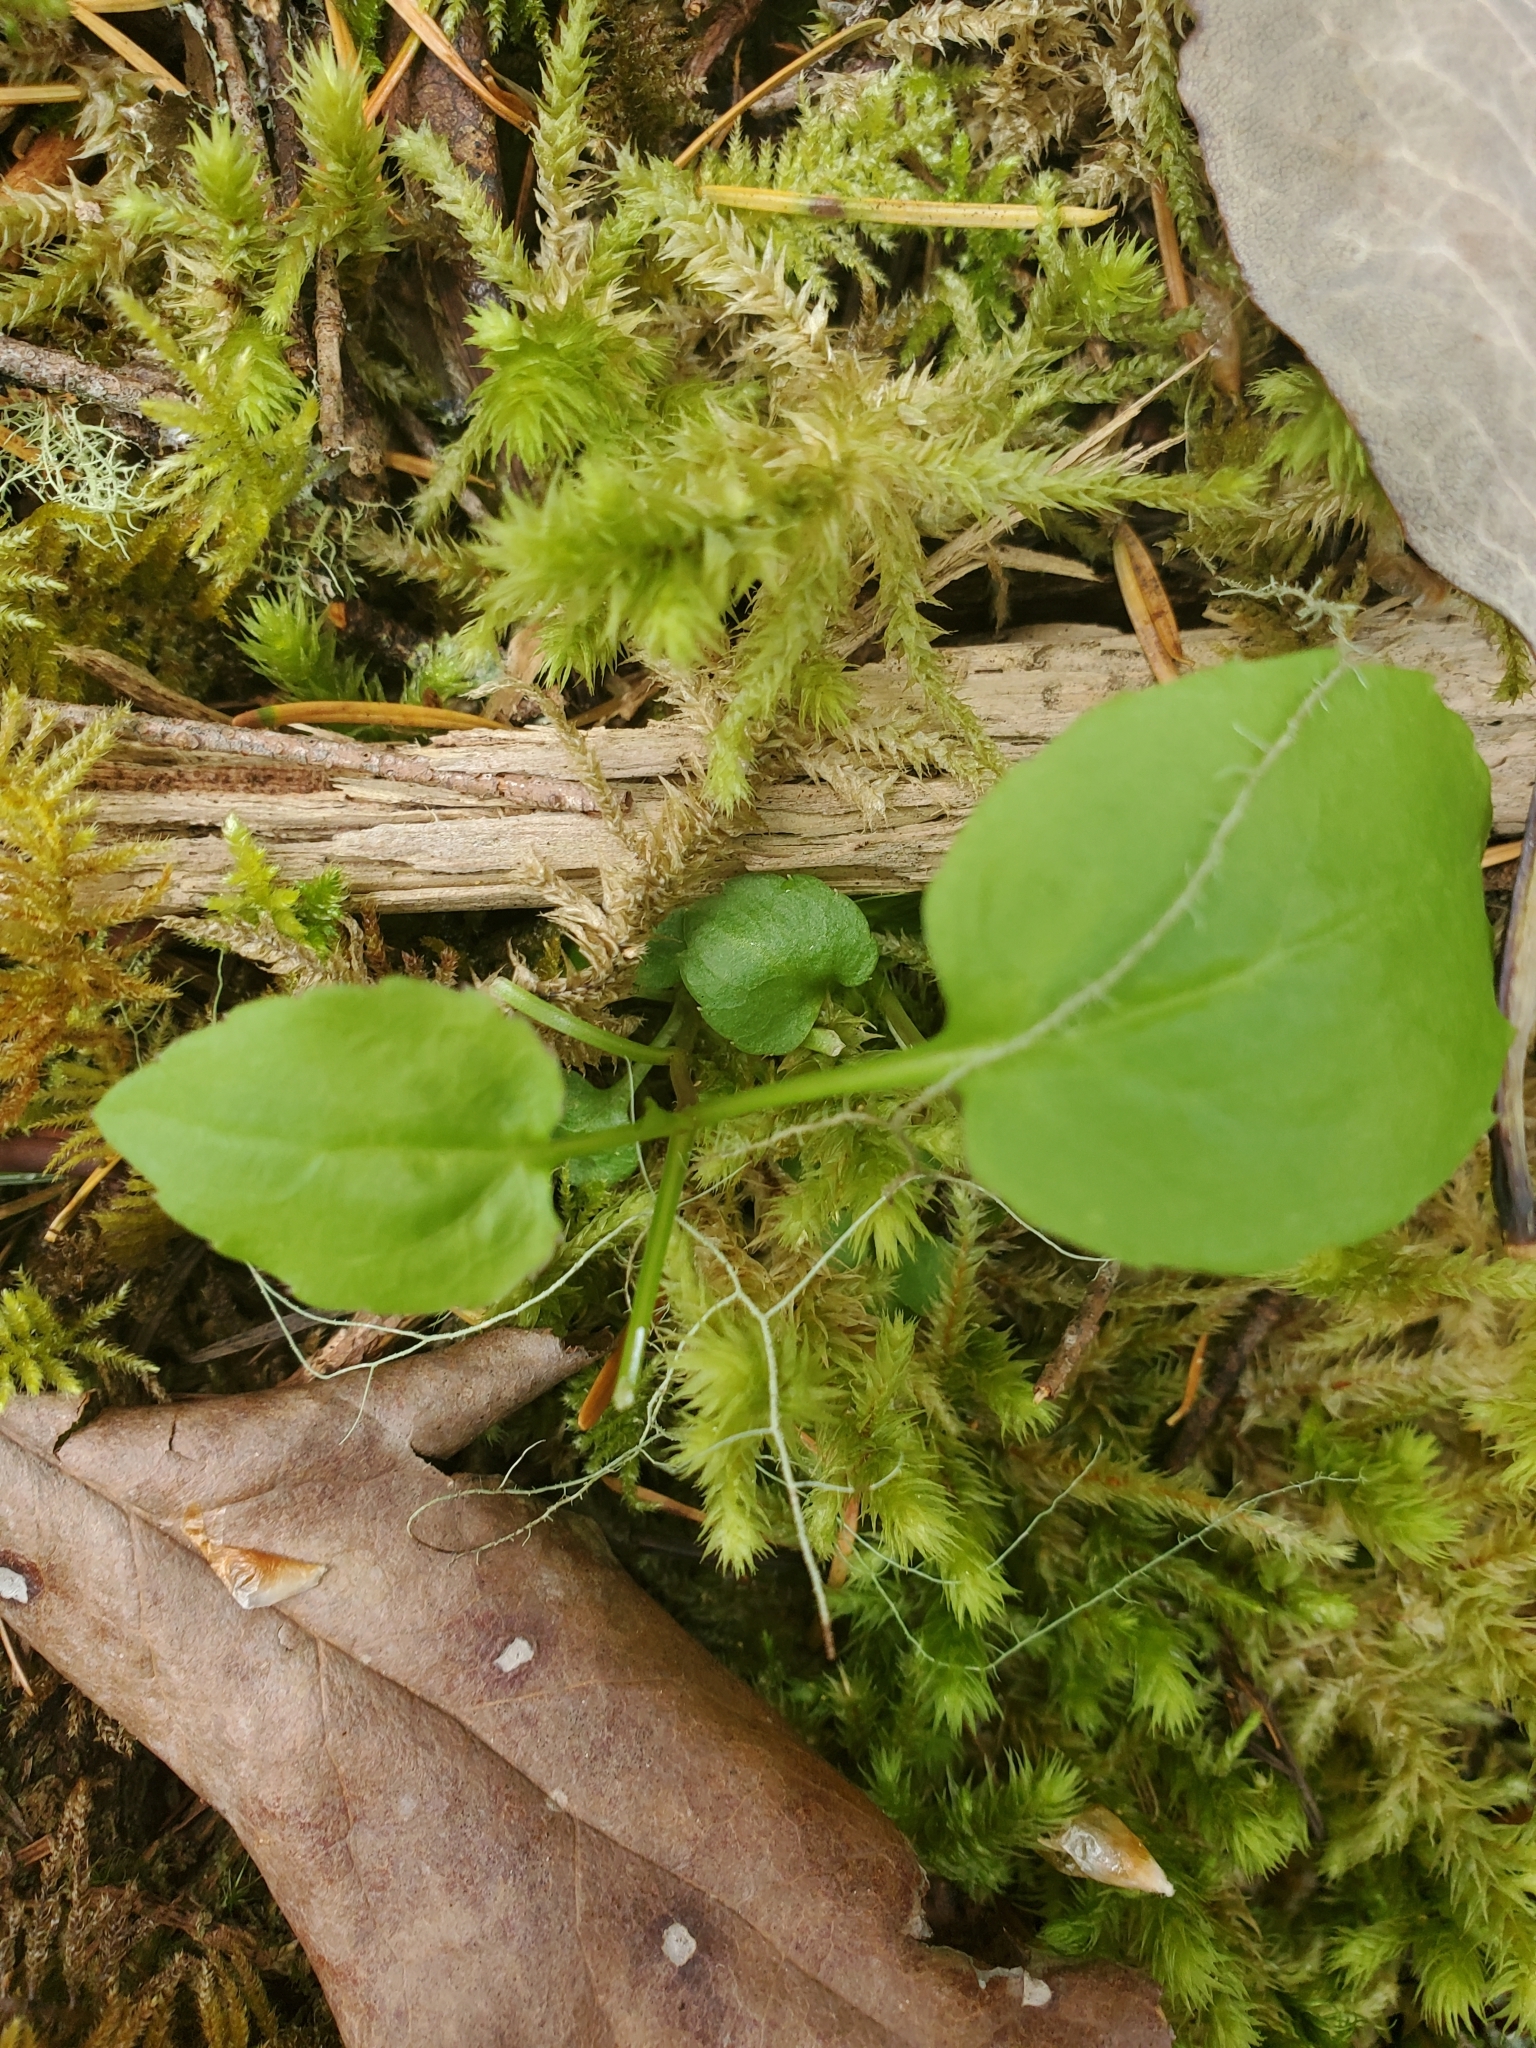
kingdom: Plantae
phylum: Tracheophyta
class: Magnoliopsida
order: Asterales
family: Campanulaceae
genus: Campanula
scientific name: Campanula scouleri
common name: Scouler's harebell
